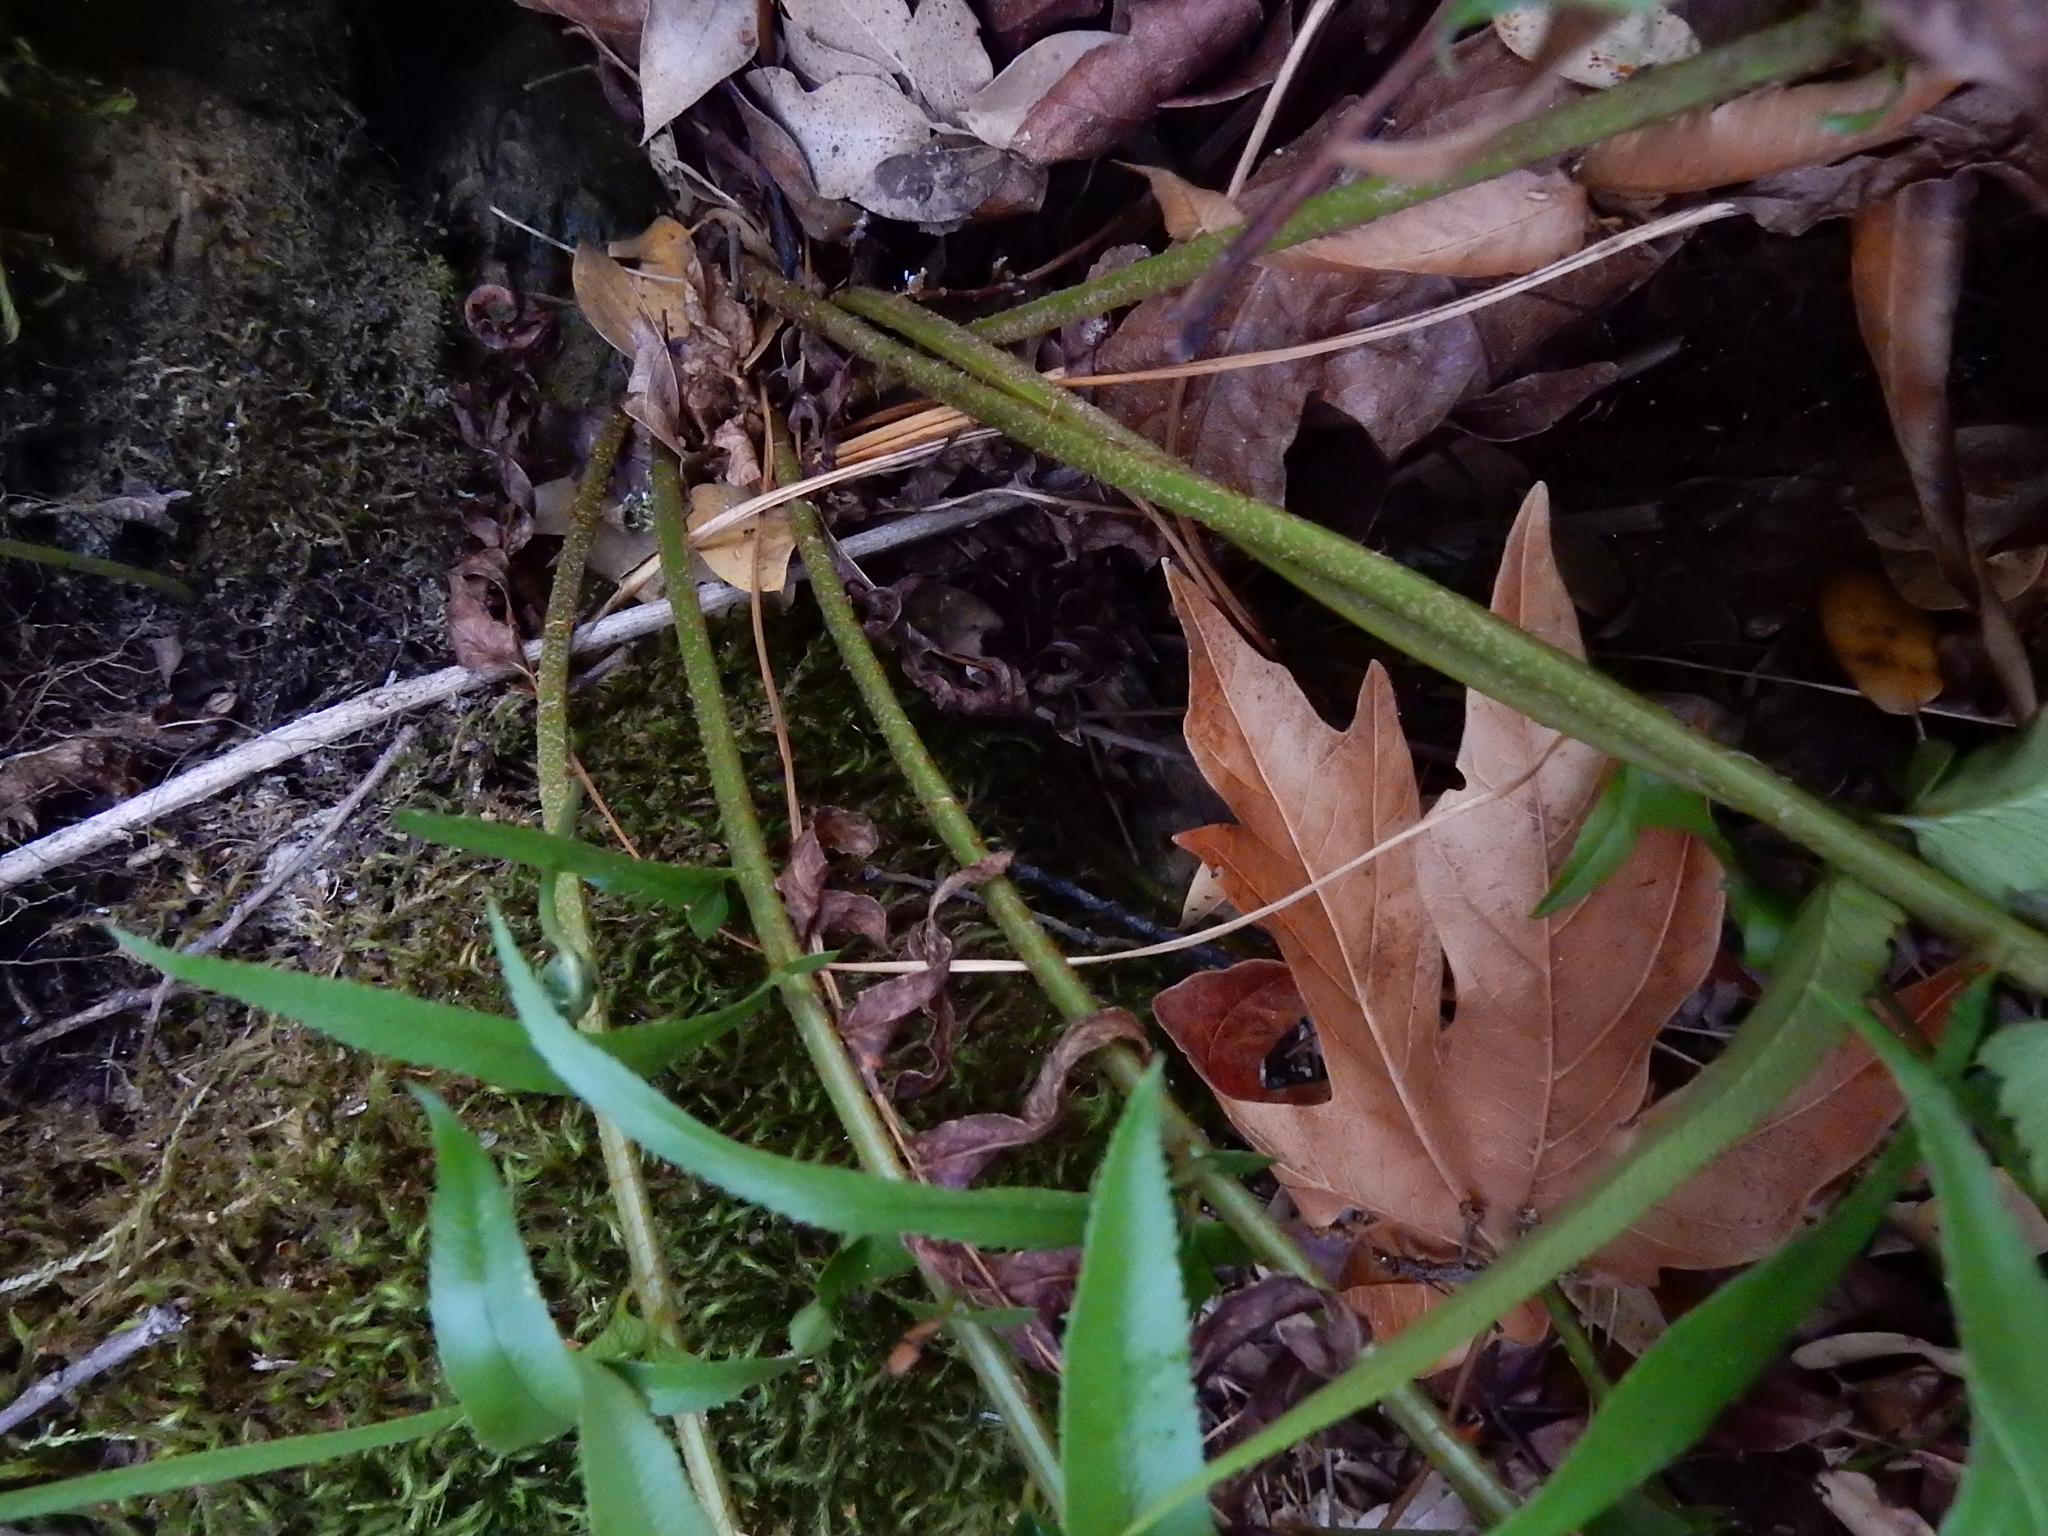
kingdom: Plantae
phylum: Tracheophyta
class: Polypodiopsida
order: Polypodiales
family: Dryopteridaceae
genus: Polystichum
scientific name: Polystichum imbricans
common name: Dwarf western sword fern
